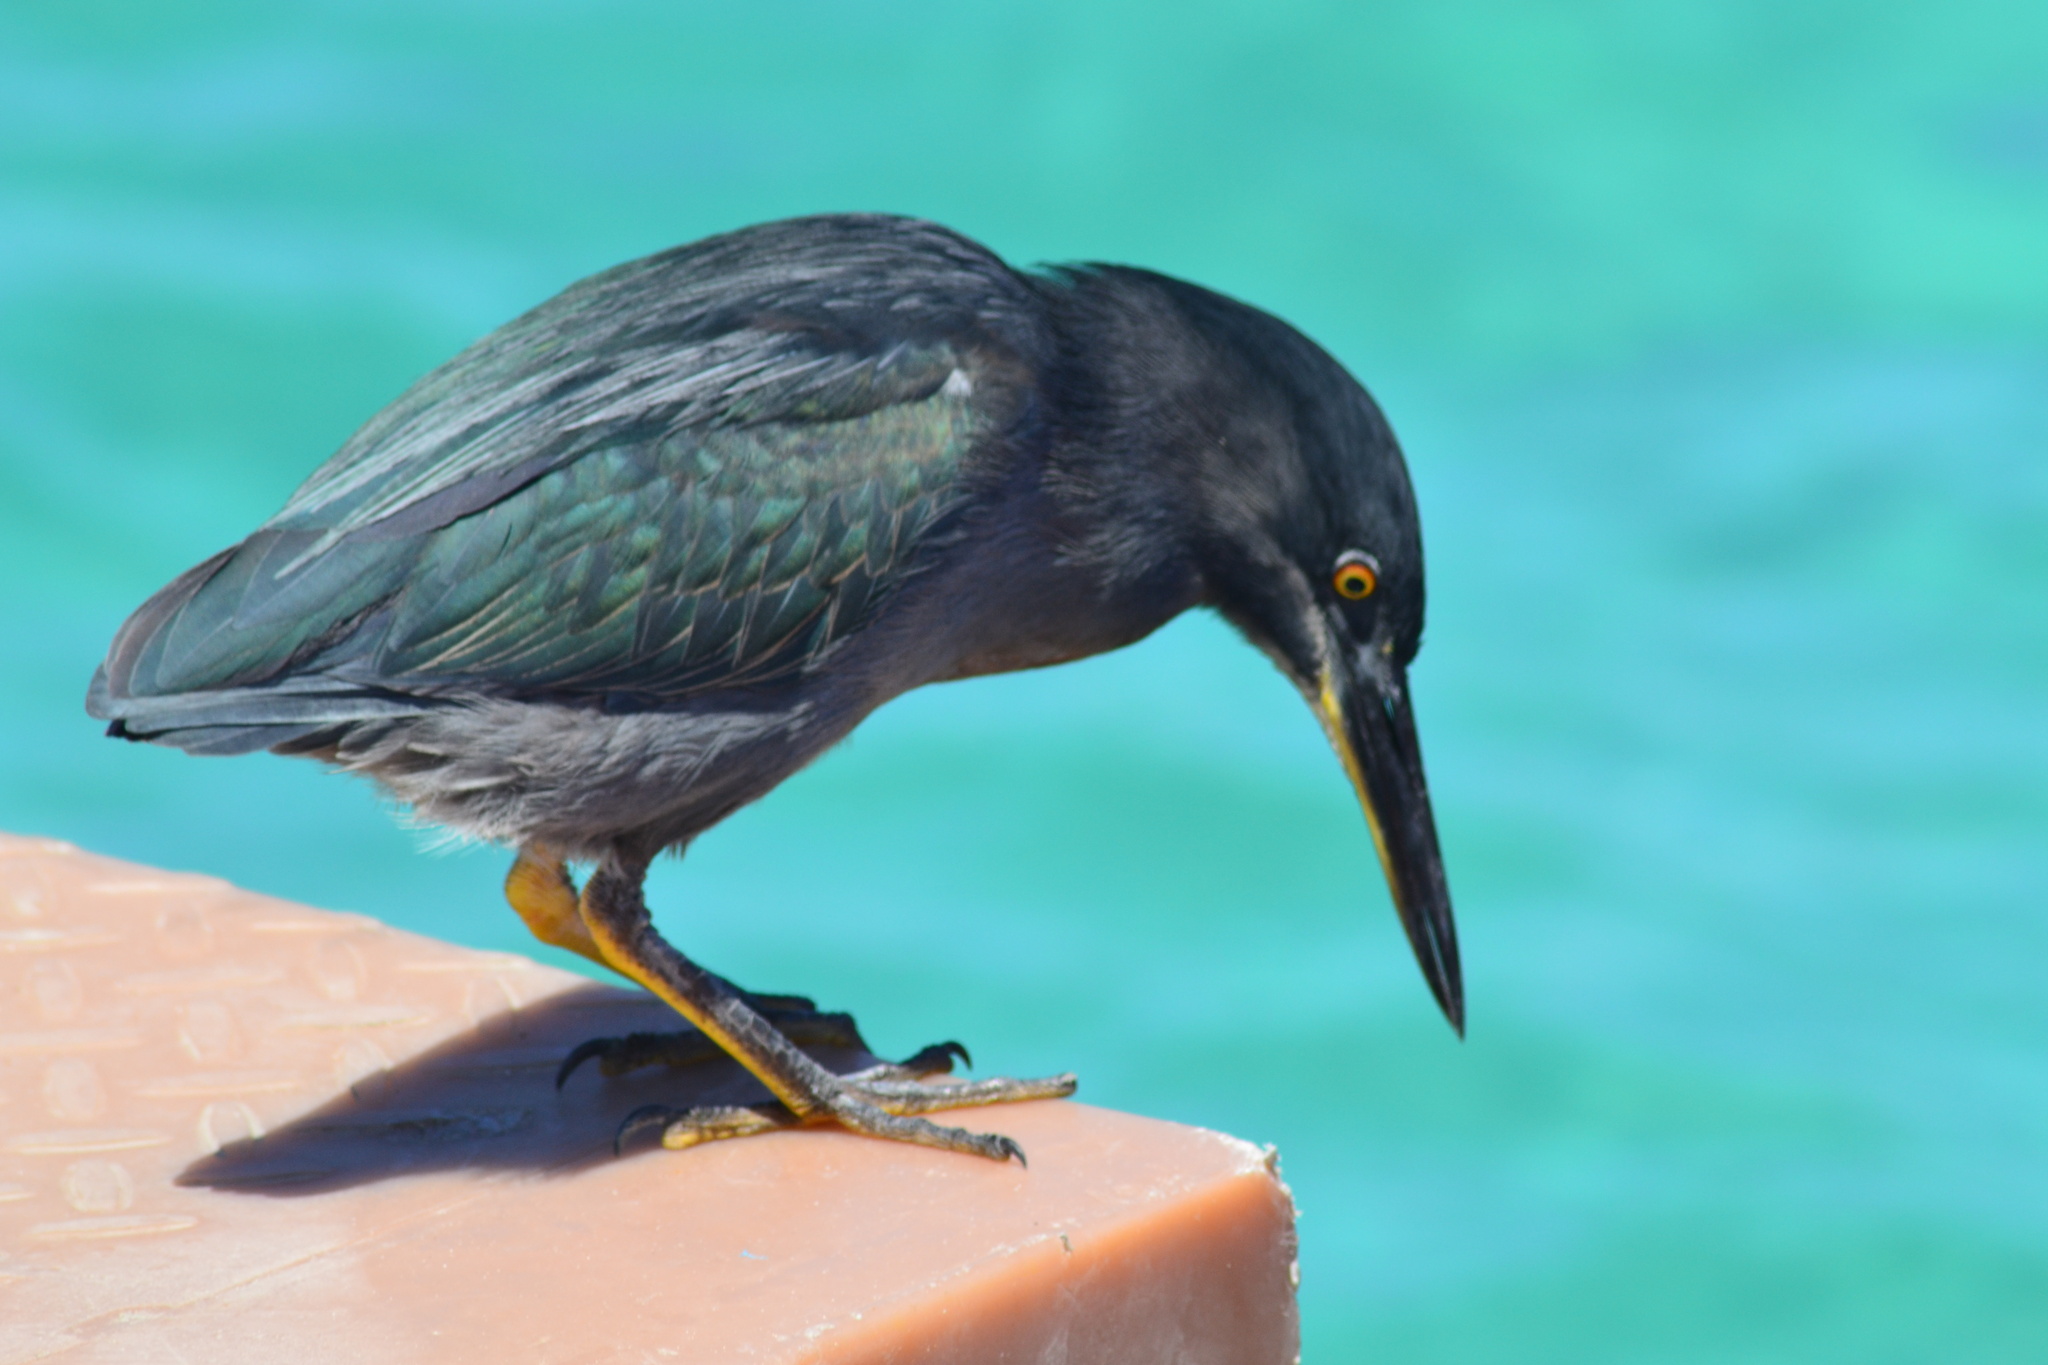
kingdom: Animalia
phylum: Chordata
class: Aves
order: Pelecaniformes
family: Ardeidae
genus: Butorides
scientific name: Butorides striata
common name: Striated heron
